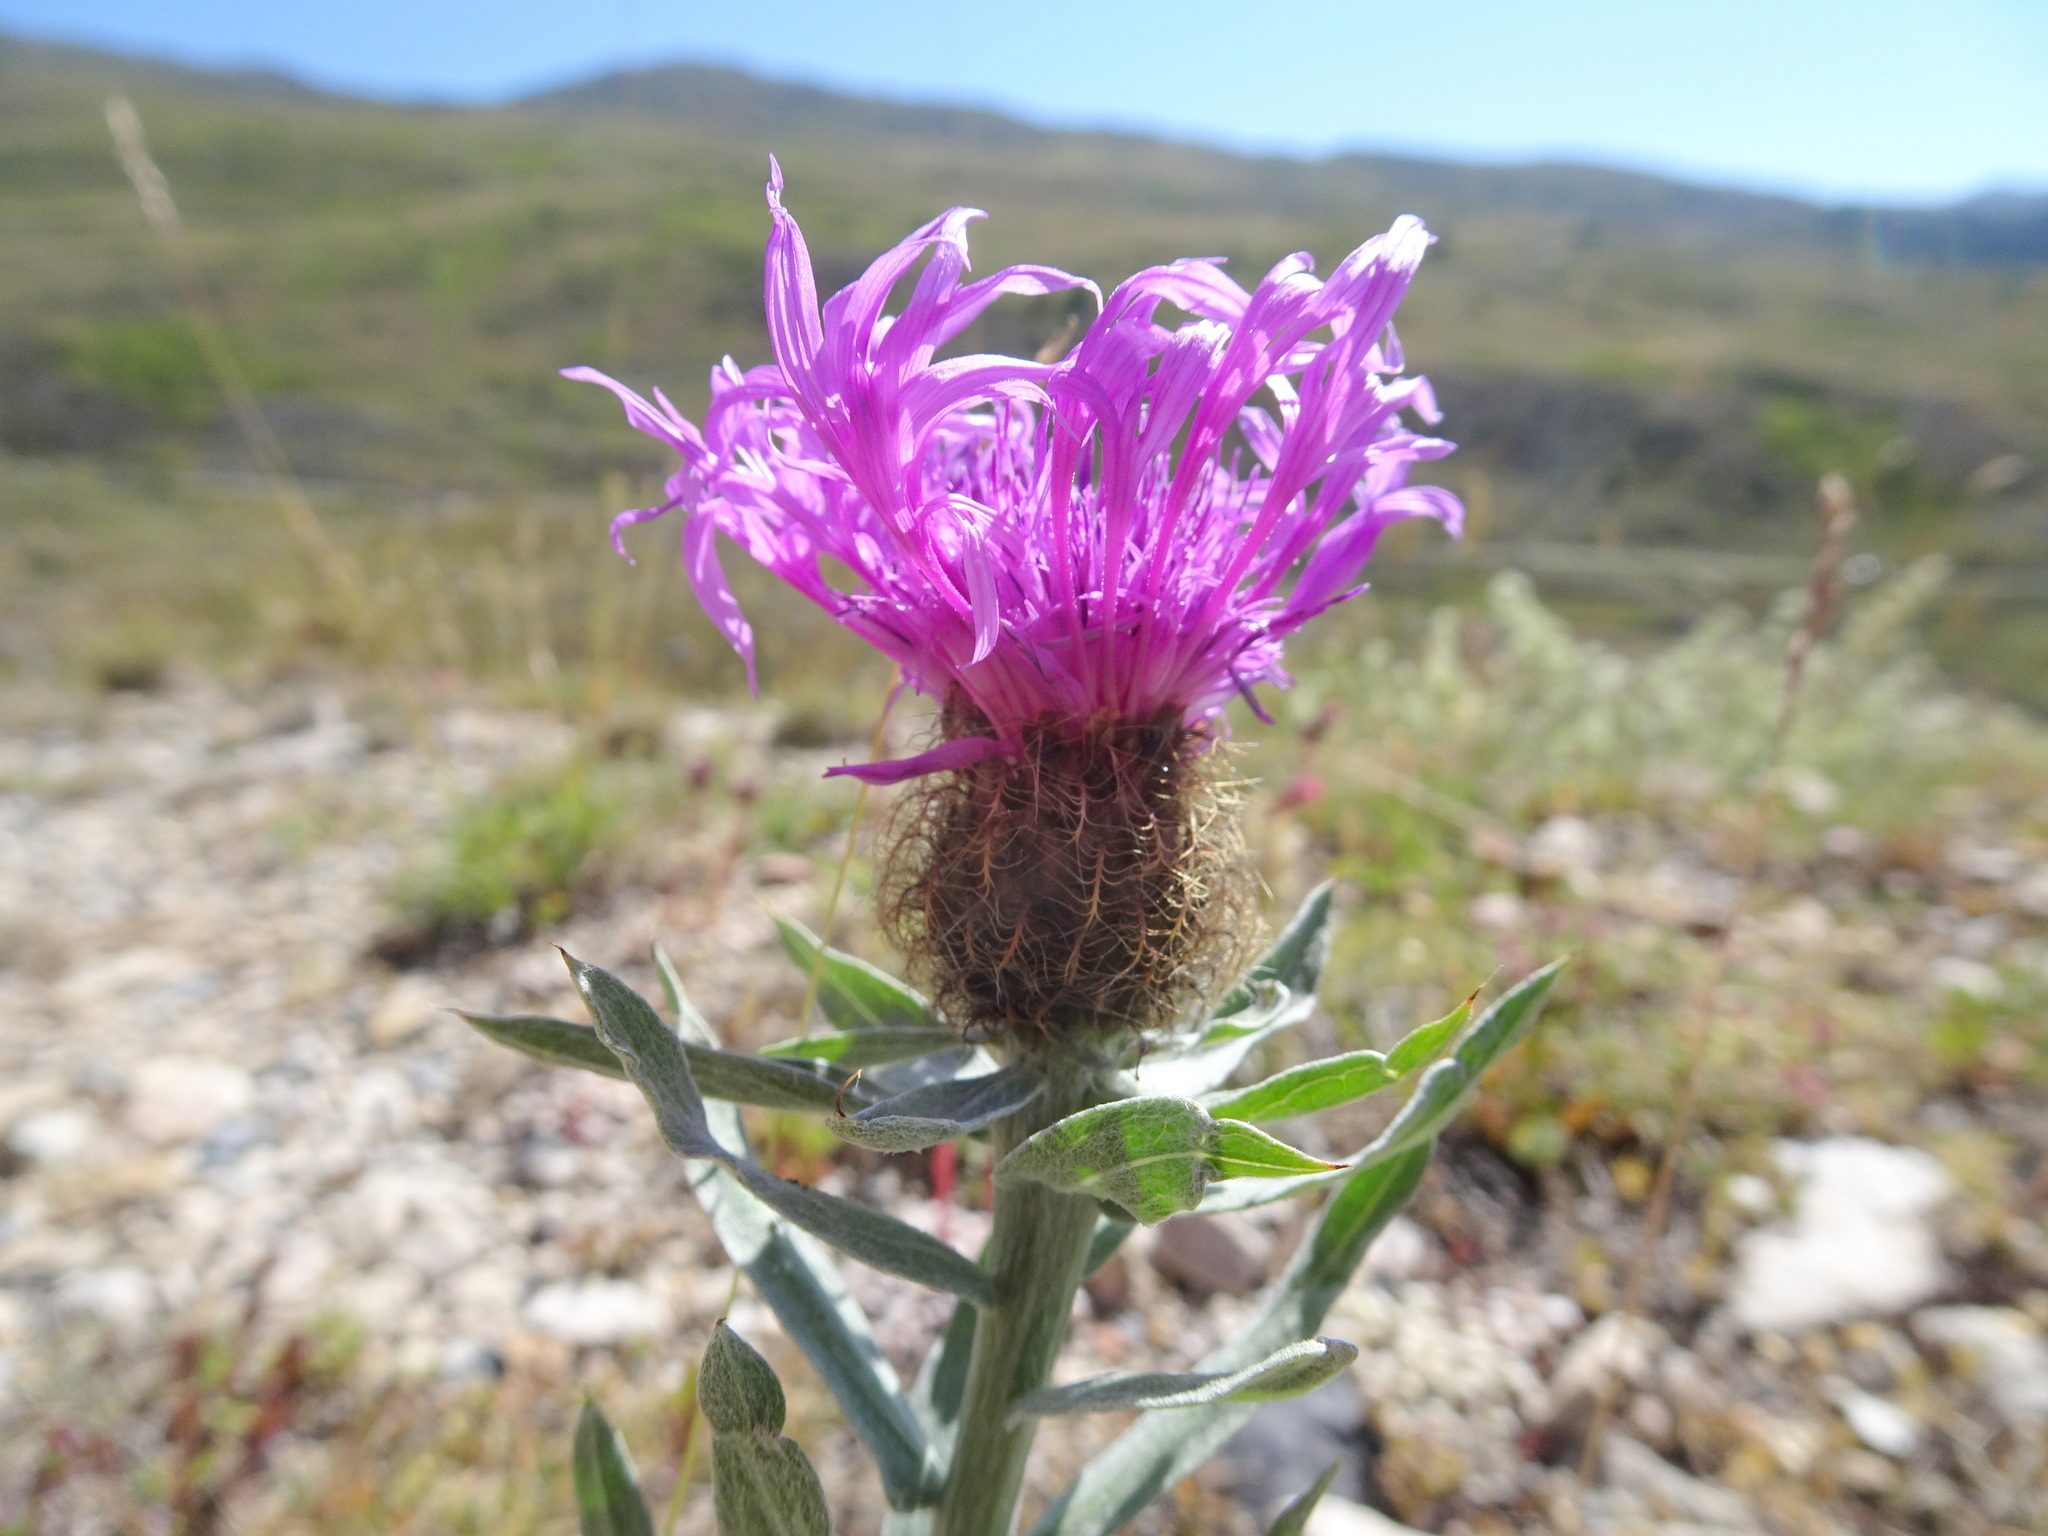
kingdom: Plantae
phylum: Tracheophyta
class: Magnoliopsida
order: Asterales
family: Asteraceae
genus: Centaurea
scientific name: Centaurea nervosa
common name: Singleflower knapweed
